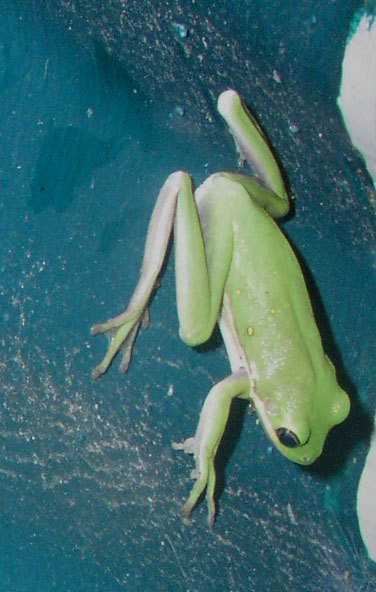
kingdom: Animalia
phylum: Chordata
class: Amphibia
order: Anura
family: Hylidae
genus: Dryophytes
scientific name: Dryophytes cinereus
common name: Green treefrog
